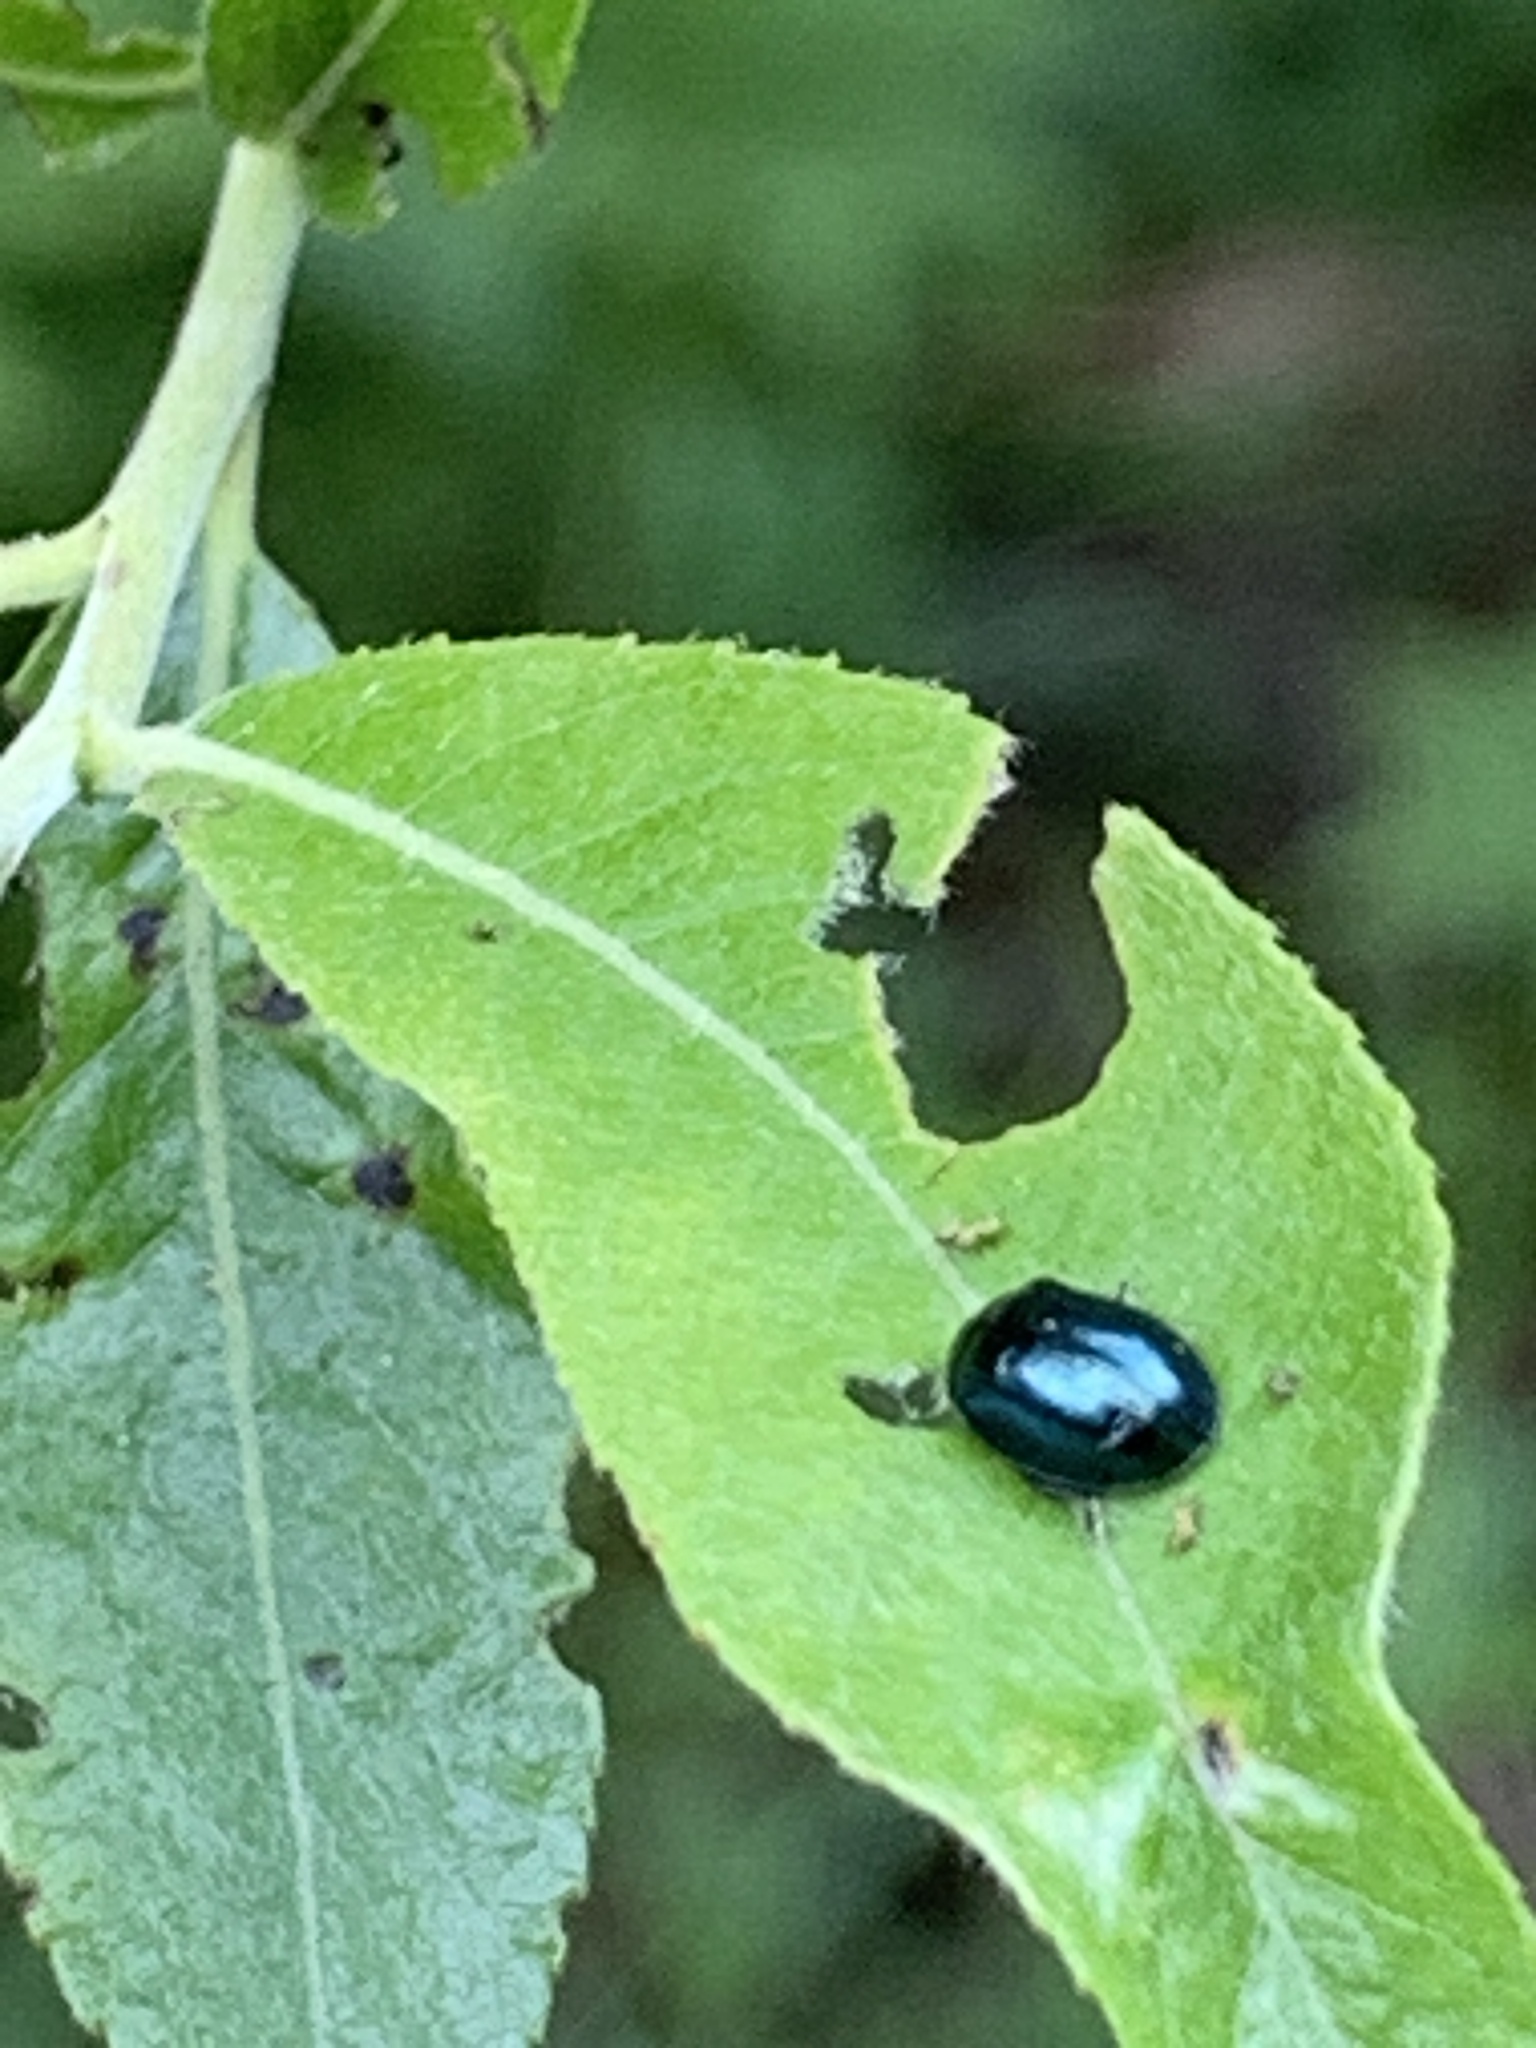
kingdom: Animalia
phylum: Arthropoda
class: Insecta
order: Coleoptera
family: Chrysomelidae
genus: Plagiodera
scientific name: Plagiodera versicolora
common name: Imported willow leaf beetle
